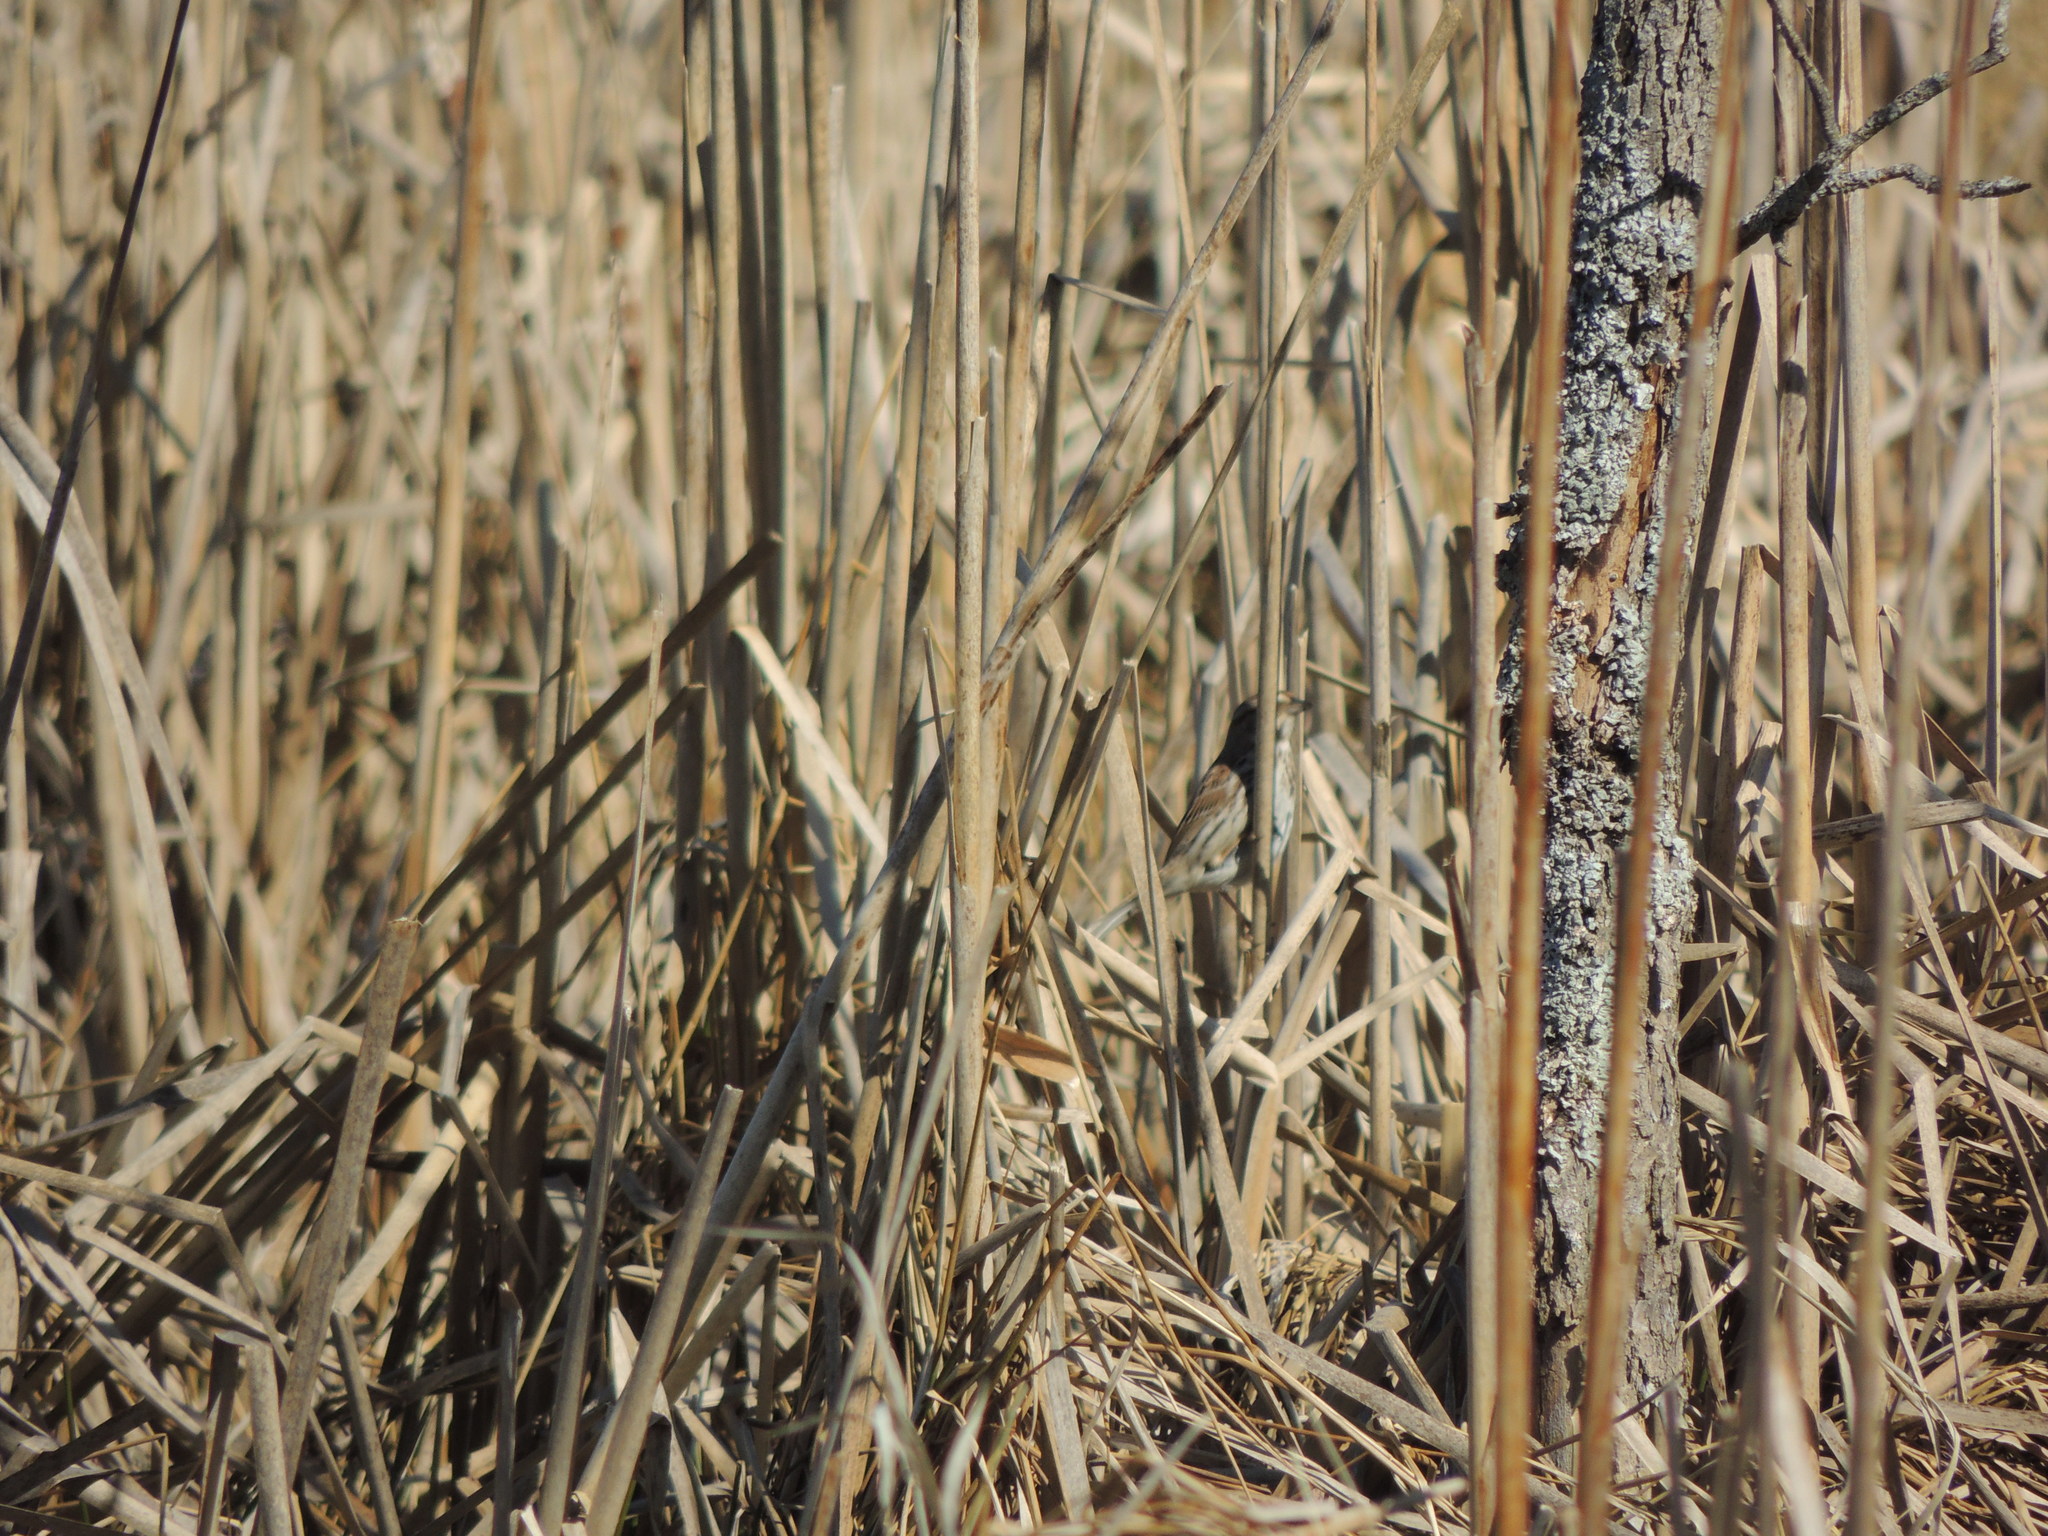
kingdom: Animalia
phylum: Chordata
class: Aves
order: Passeriformes
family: Passerellidae
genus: Melospiza
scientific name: Melospiza melodia
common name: Song sparrow
